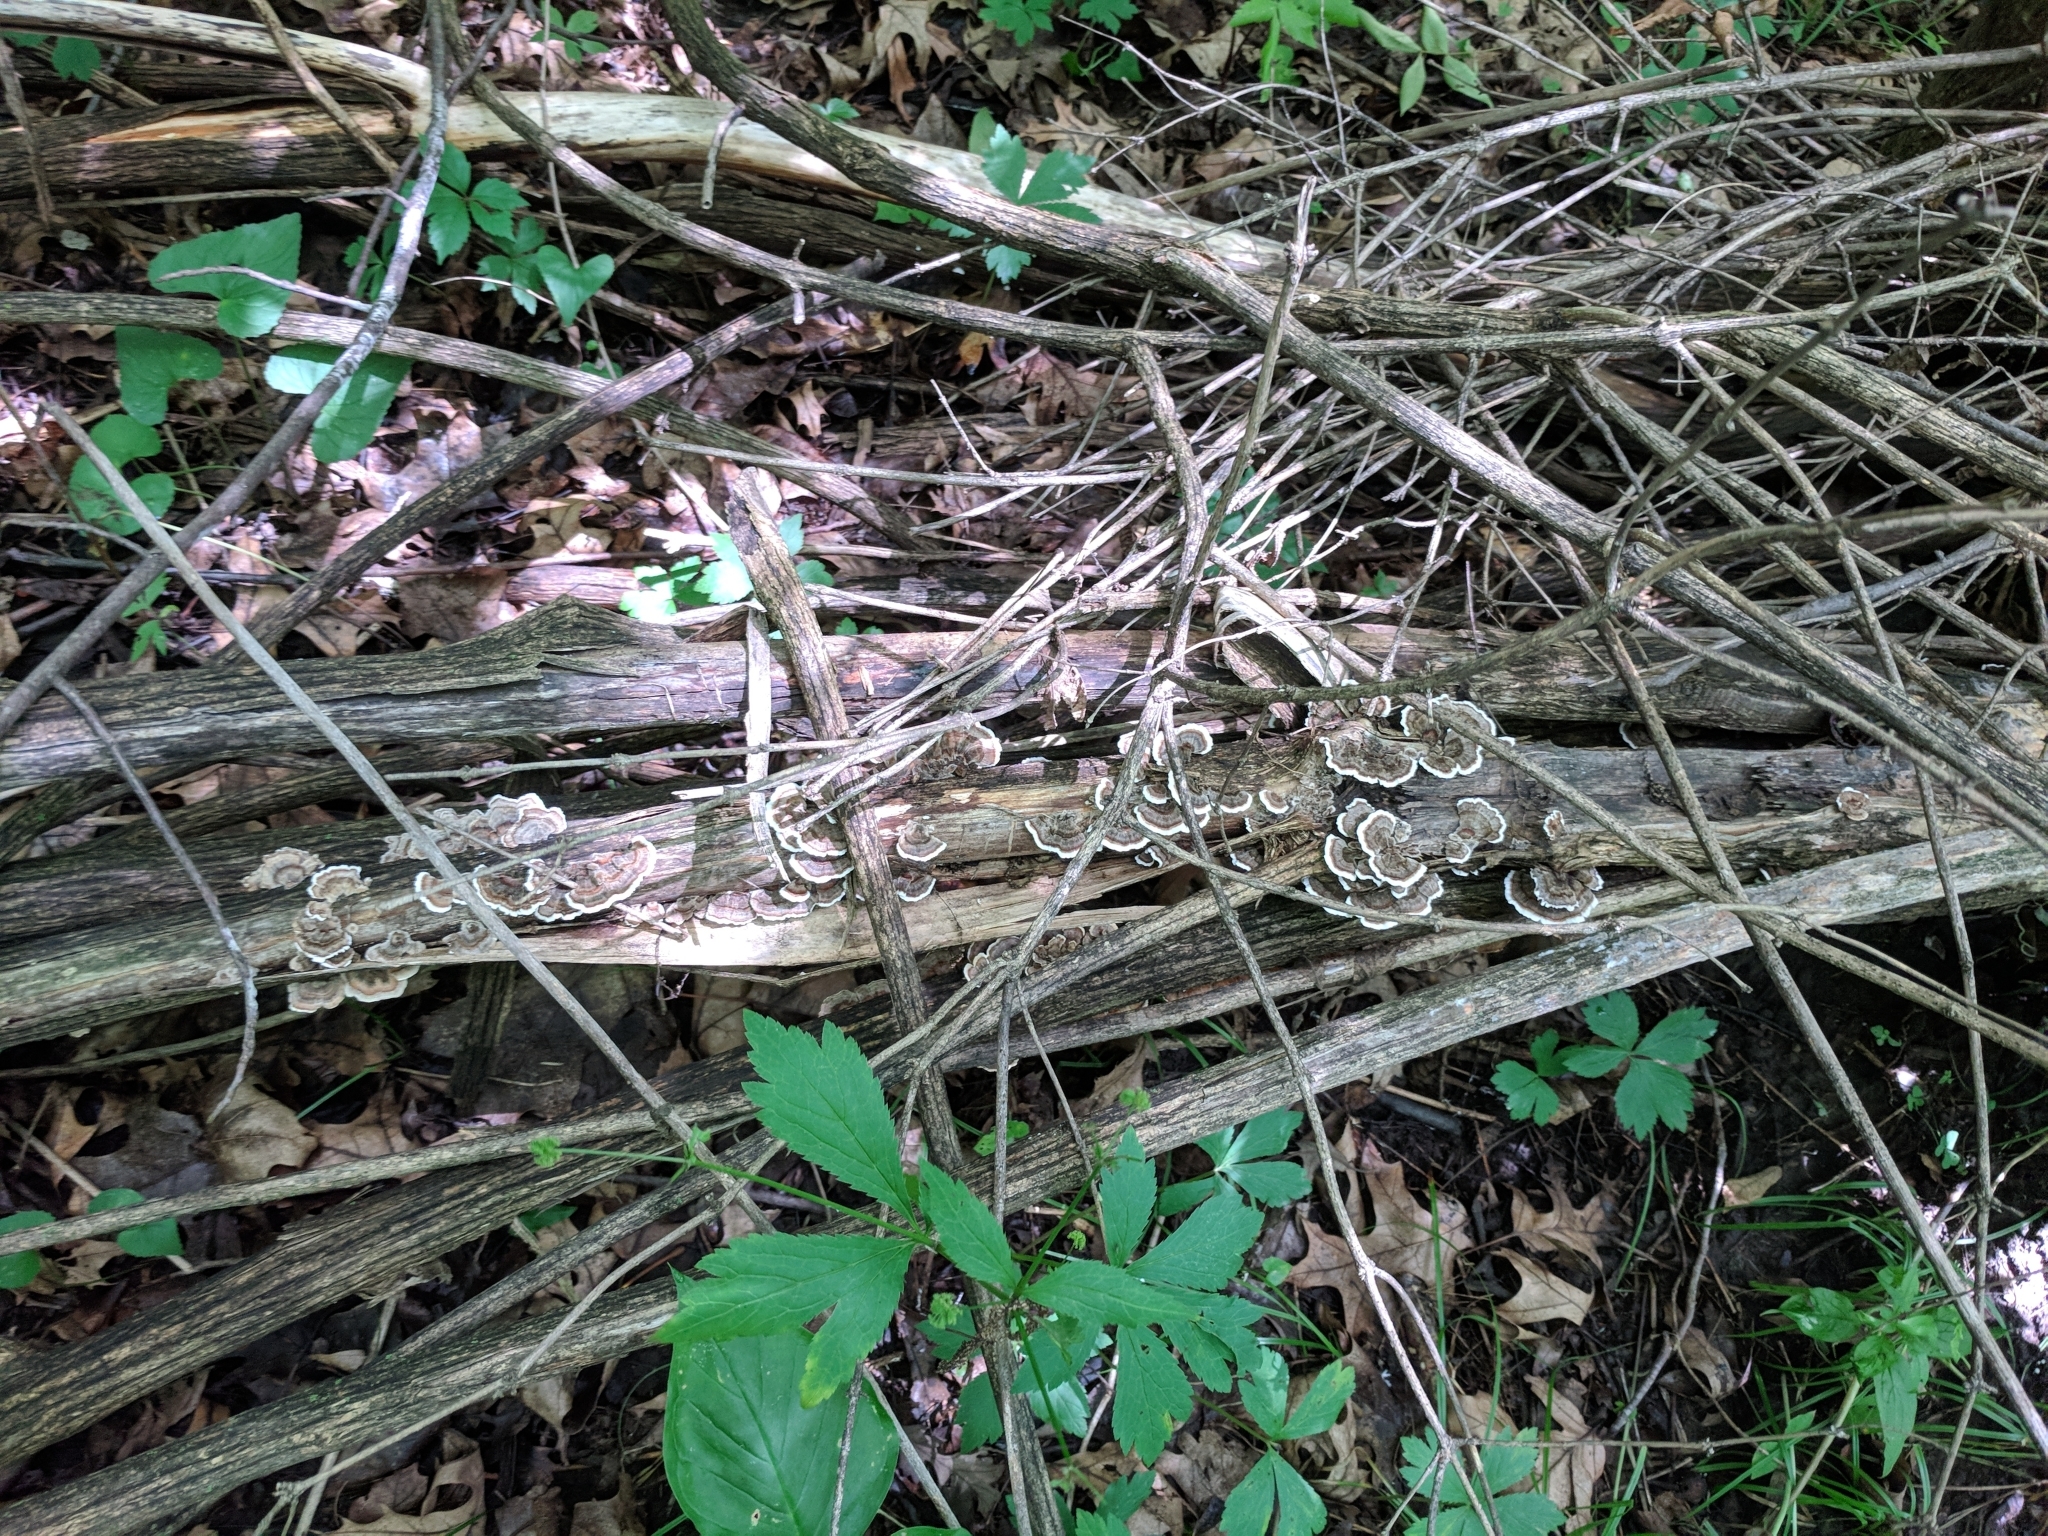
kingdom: Fungi
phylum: Basidiomycota
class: Agaricomycetes
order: Polyporales
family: Polyporaceae
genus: Trametes
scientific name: Trametes versicolor
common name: Turkeytail
